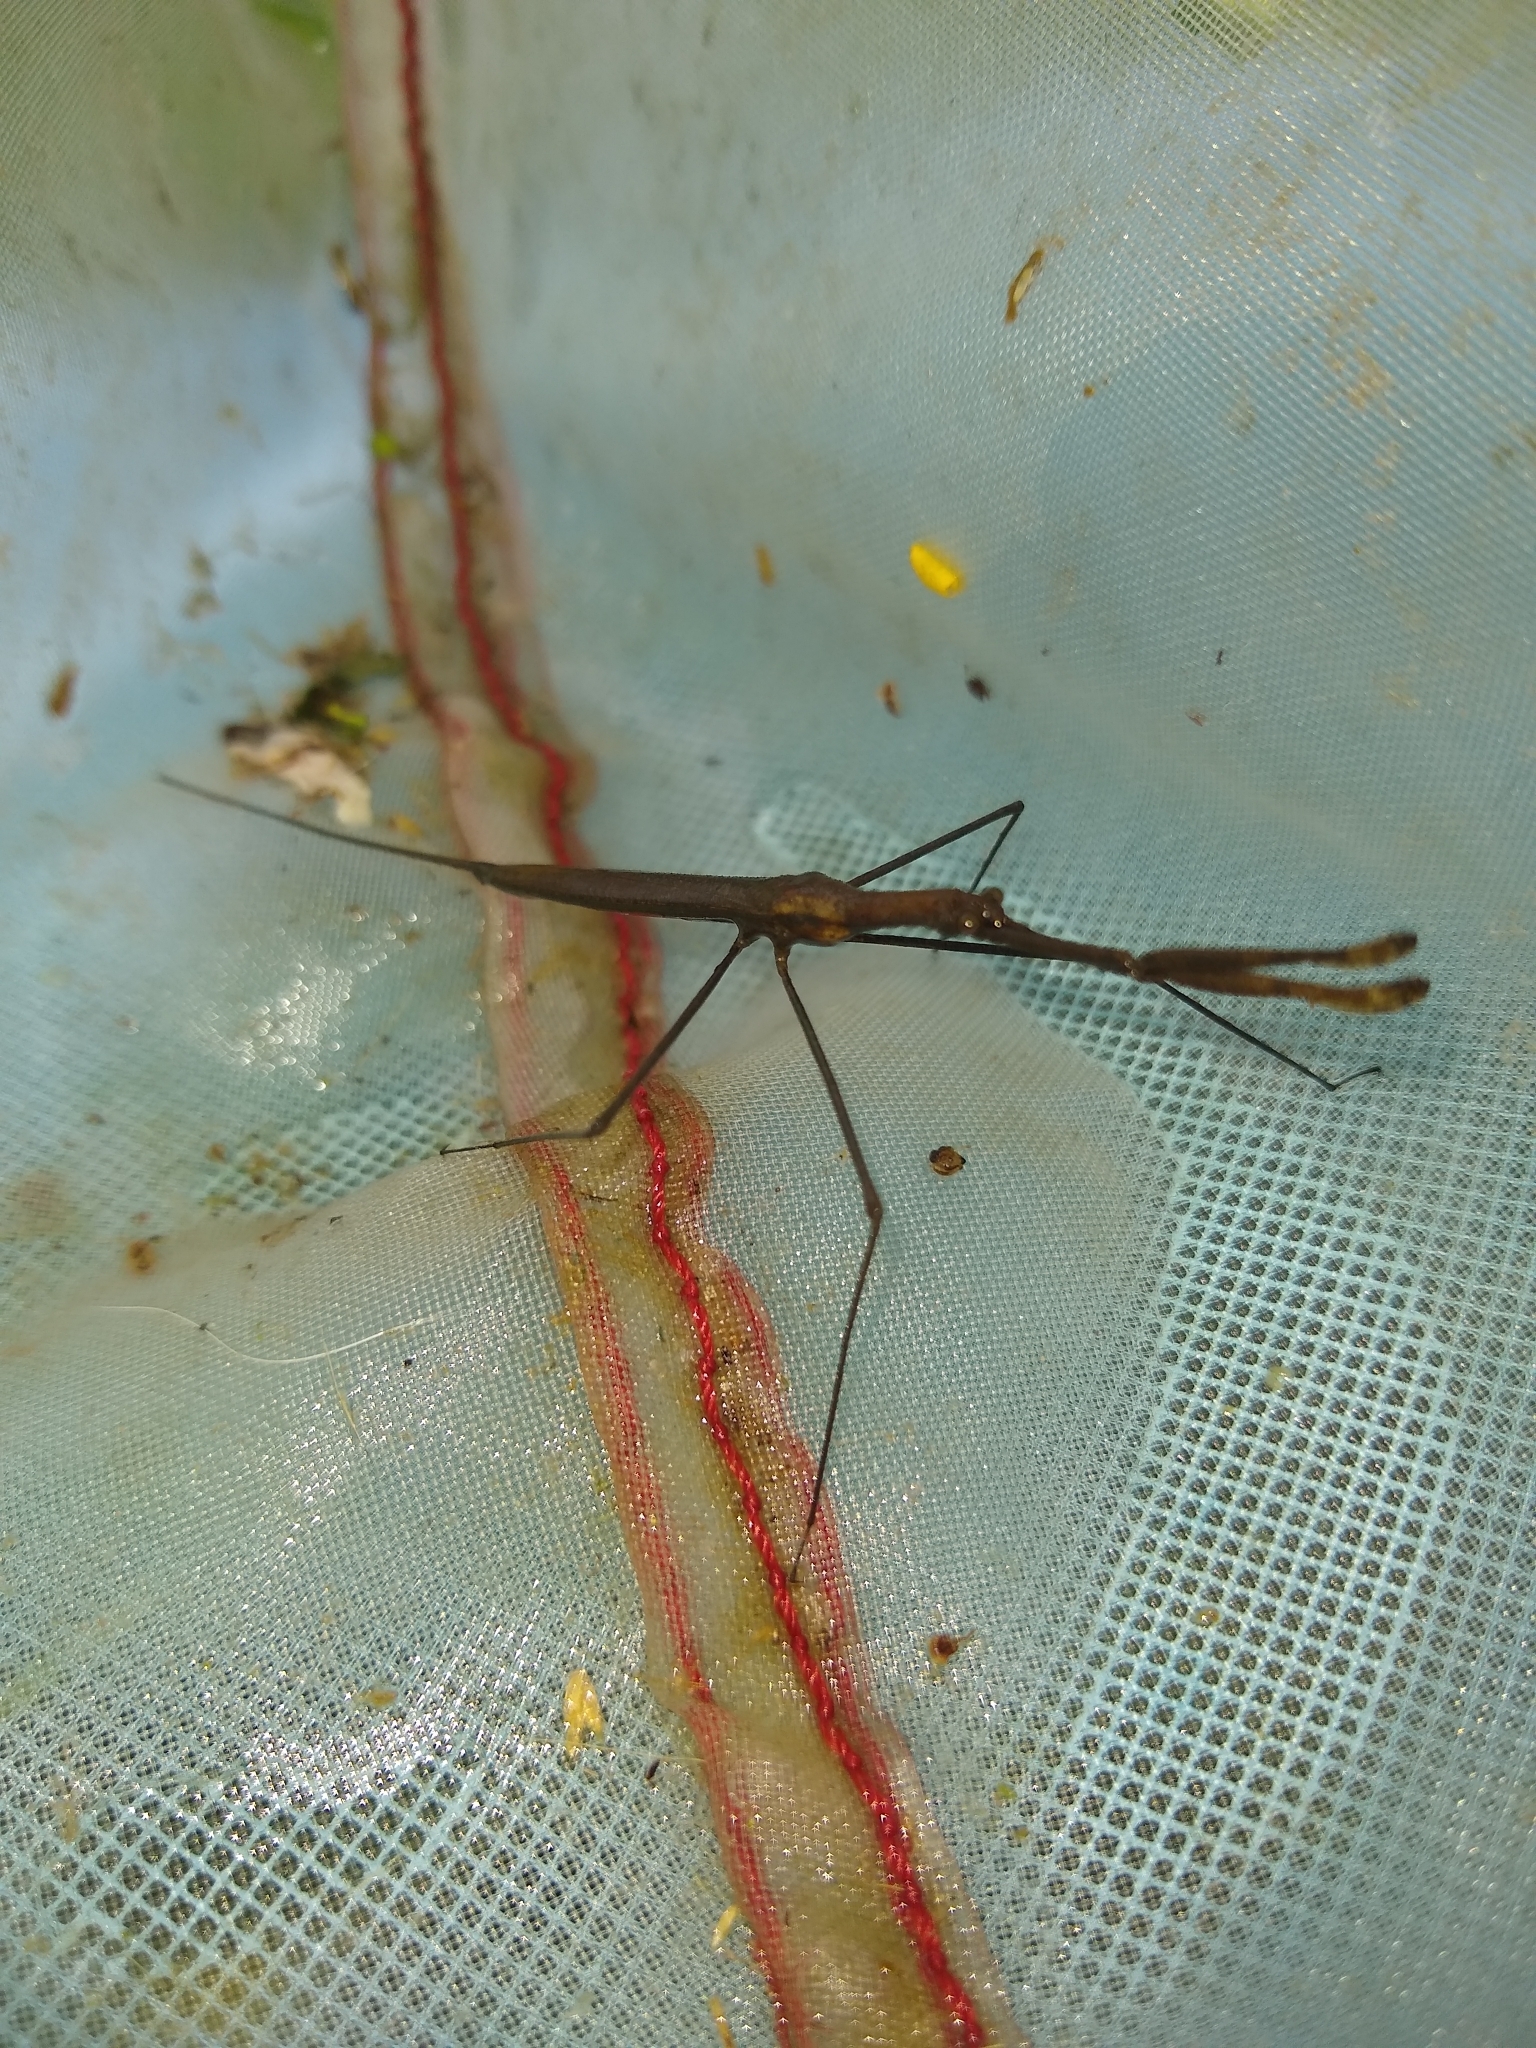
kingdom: Animalia
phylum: Arthropoda
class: Insecta
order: Hemiptera
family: Nepidae
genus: Ranatra
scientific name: Ranatra
